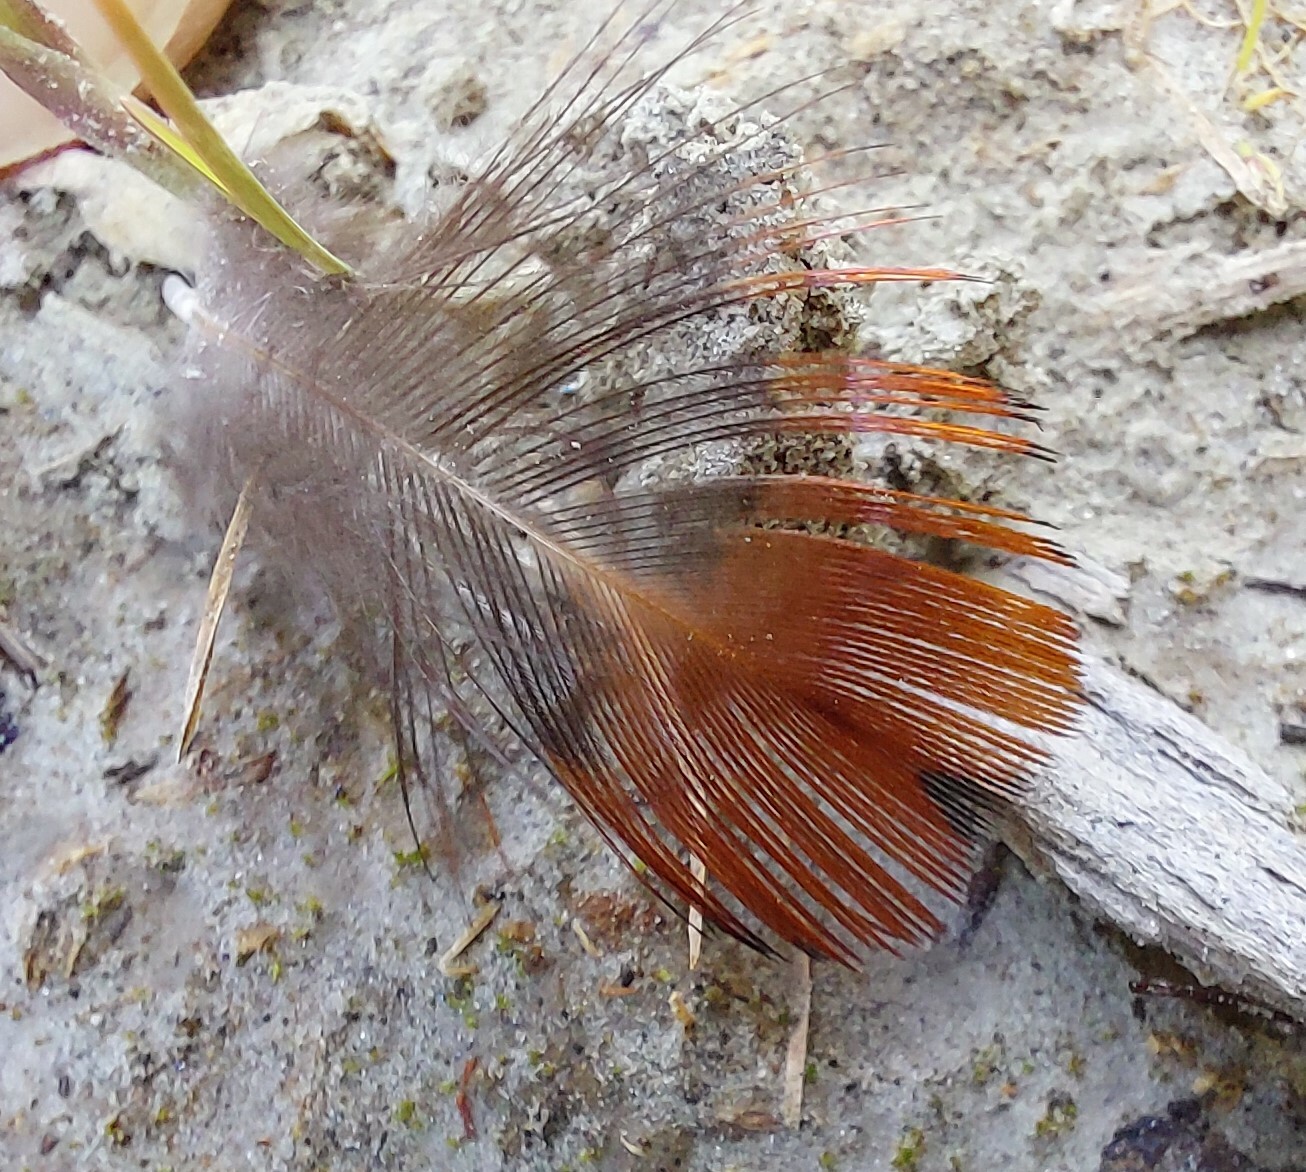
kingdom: Animalia
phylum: Chordata
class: Aves
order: Galliformes
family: Phasianidae
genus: Phasianus
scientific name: Phasianus colchicus
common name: Common pheasant
